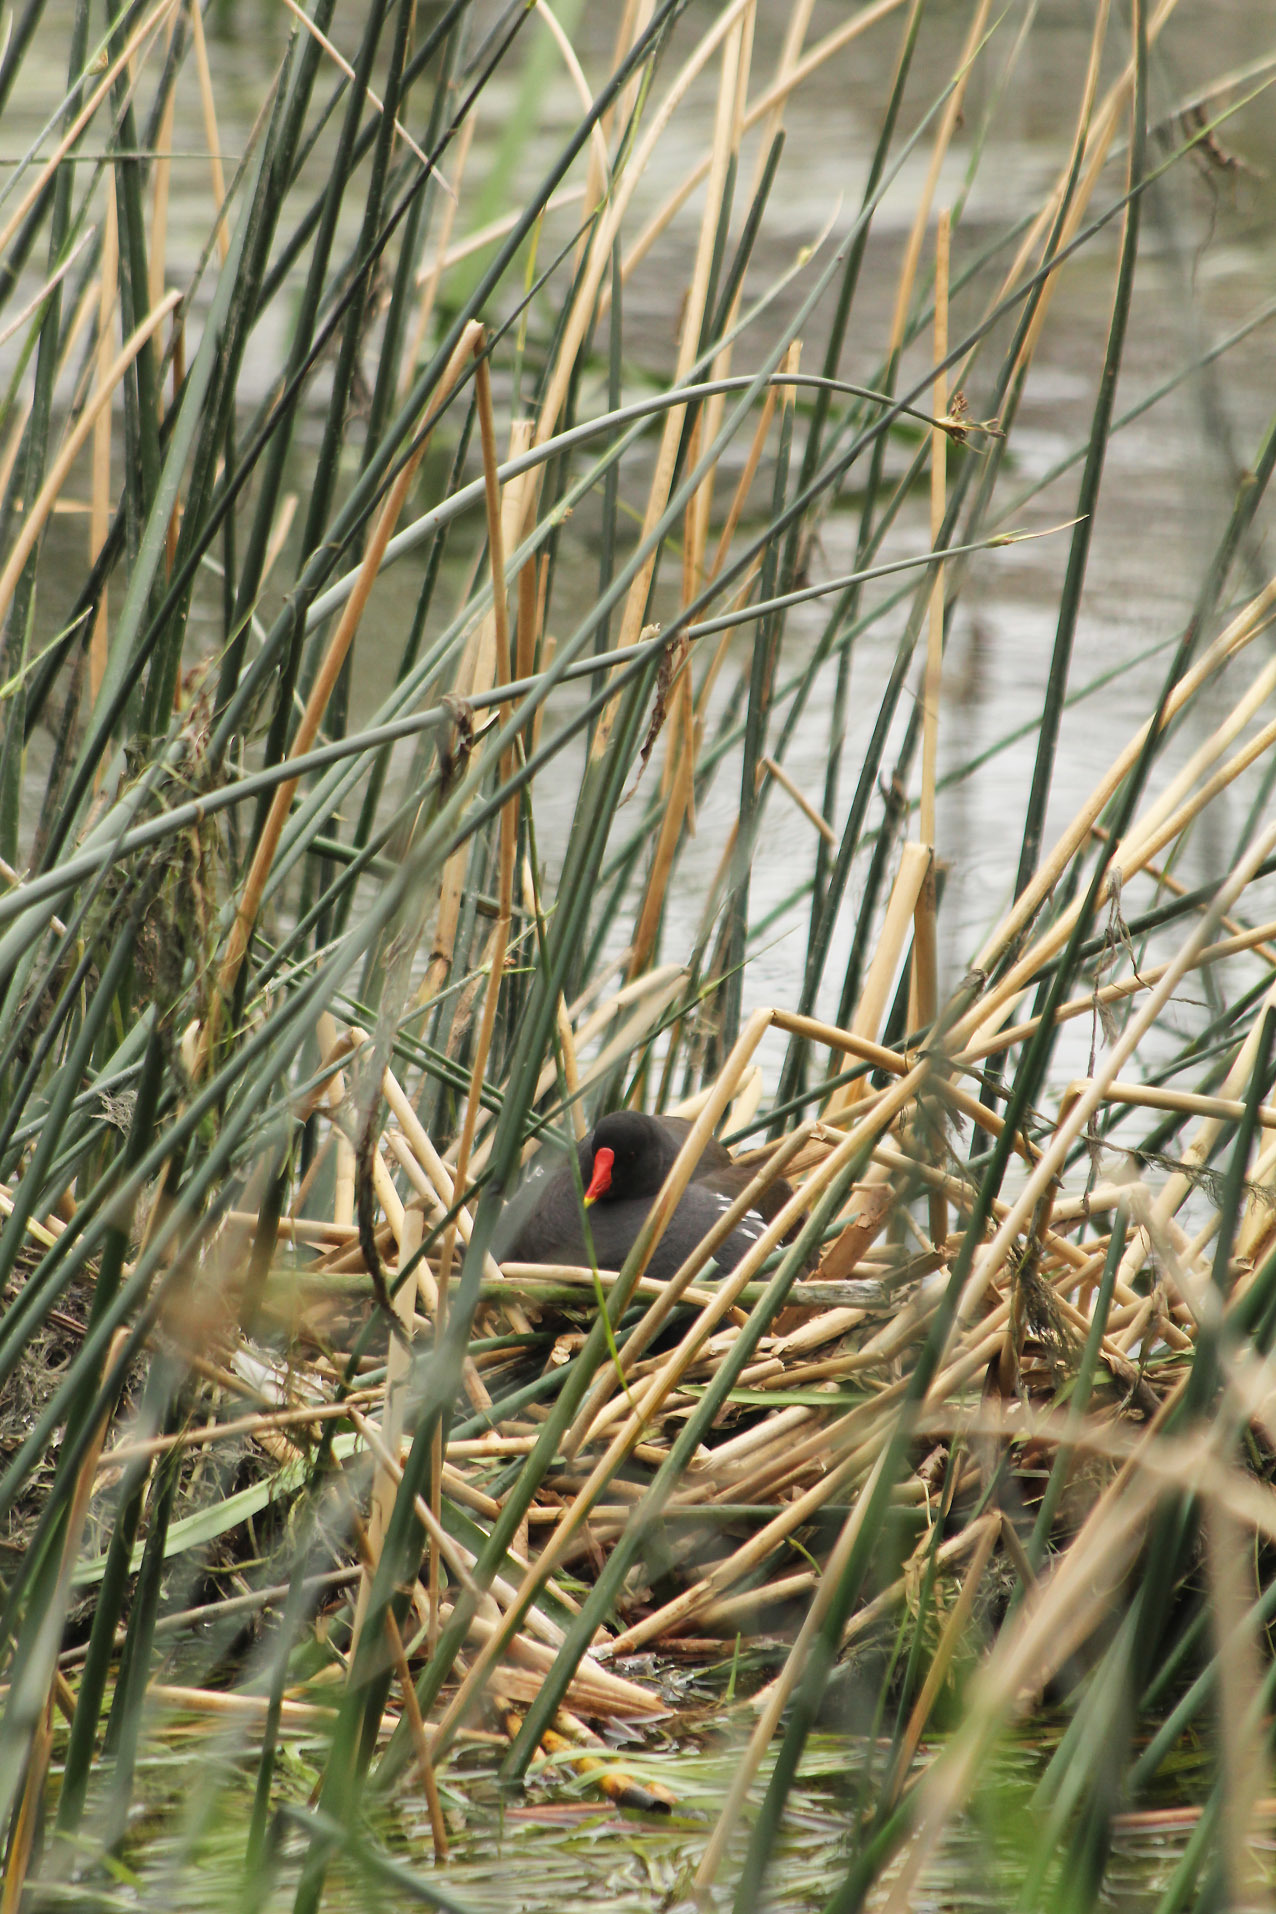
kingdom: Animalia
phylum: Chordata
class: Aves
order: Gruiformes
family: Rallidae
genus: Gallinula
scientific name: Gallinula chloropus
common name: Common moorhen
